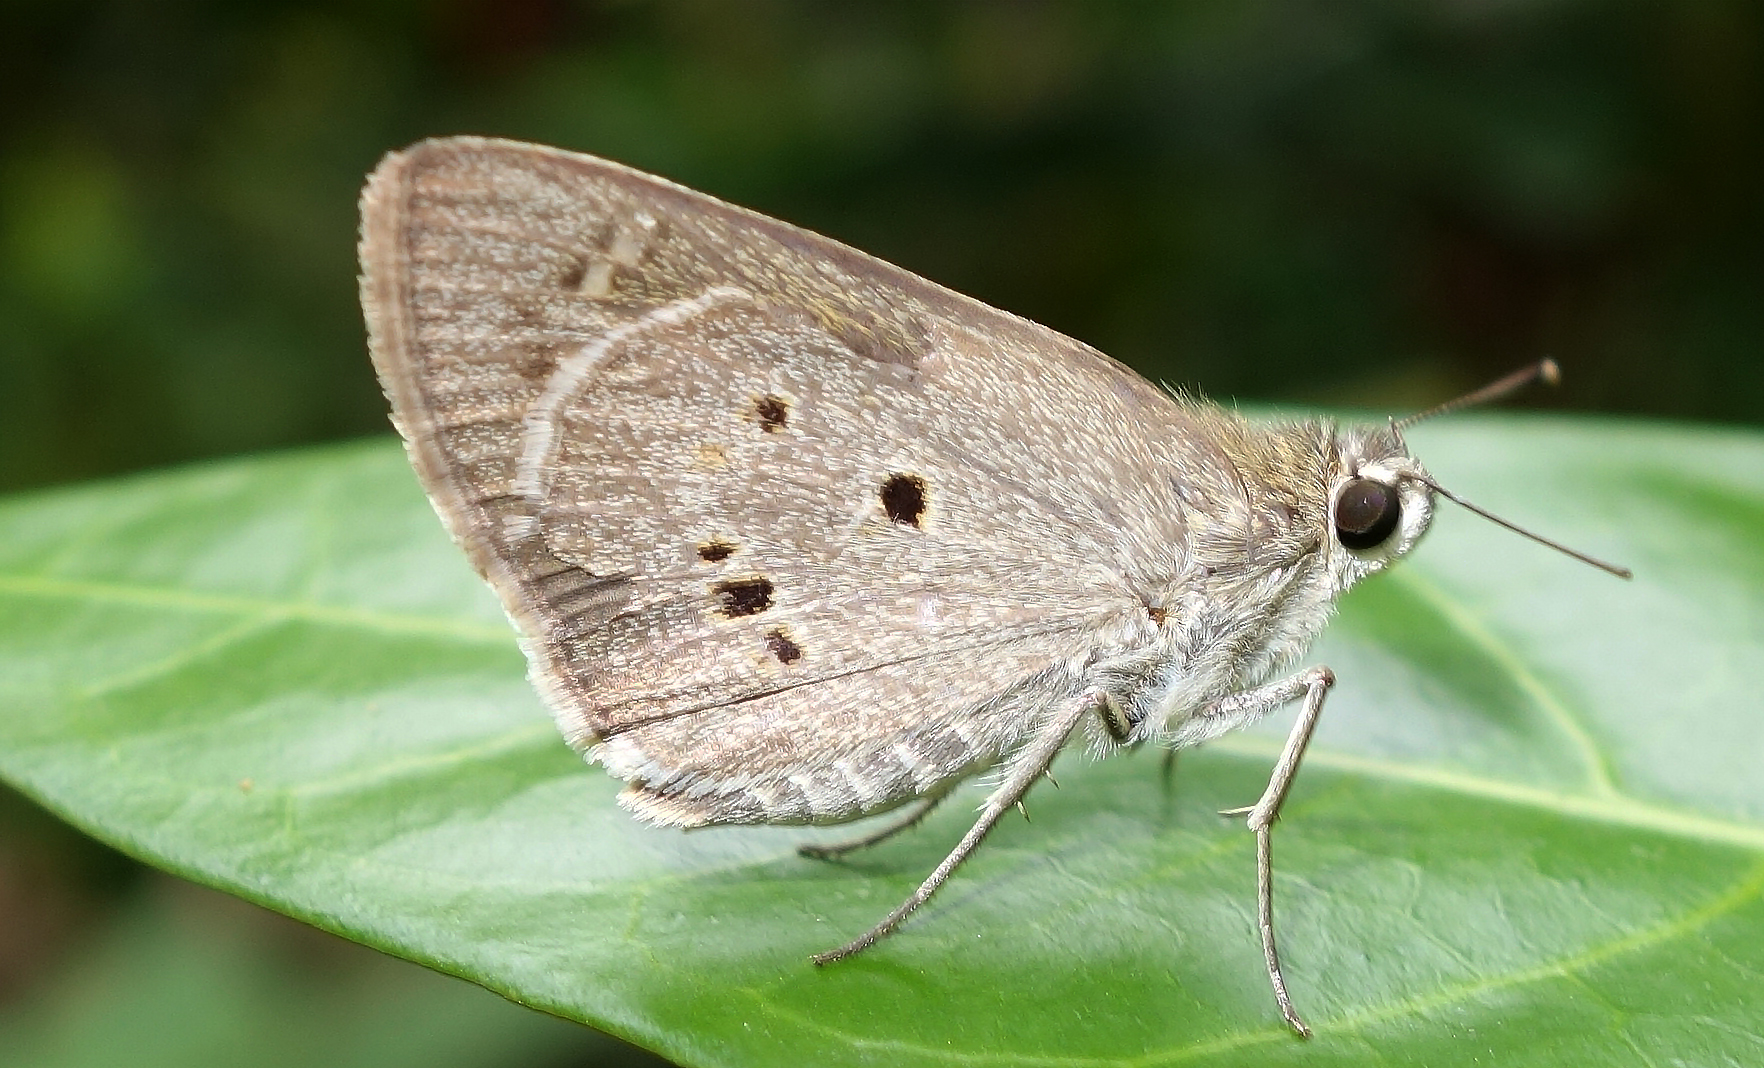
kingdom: Animalia
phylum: Arthropoda
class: Insecta
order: Lepidoptera
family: Hesperiidae
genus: Suastus
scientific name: Suastus gremius
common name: Indian palm bob
